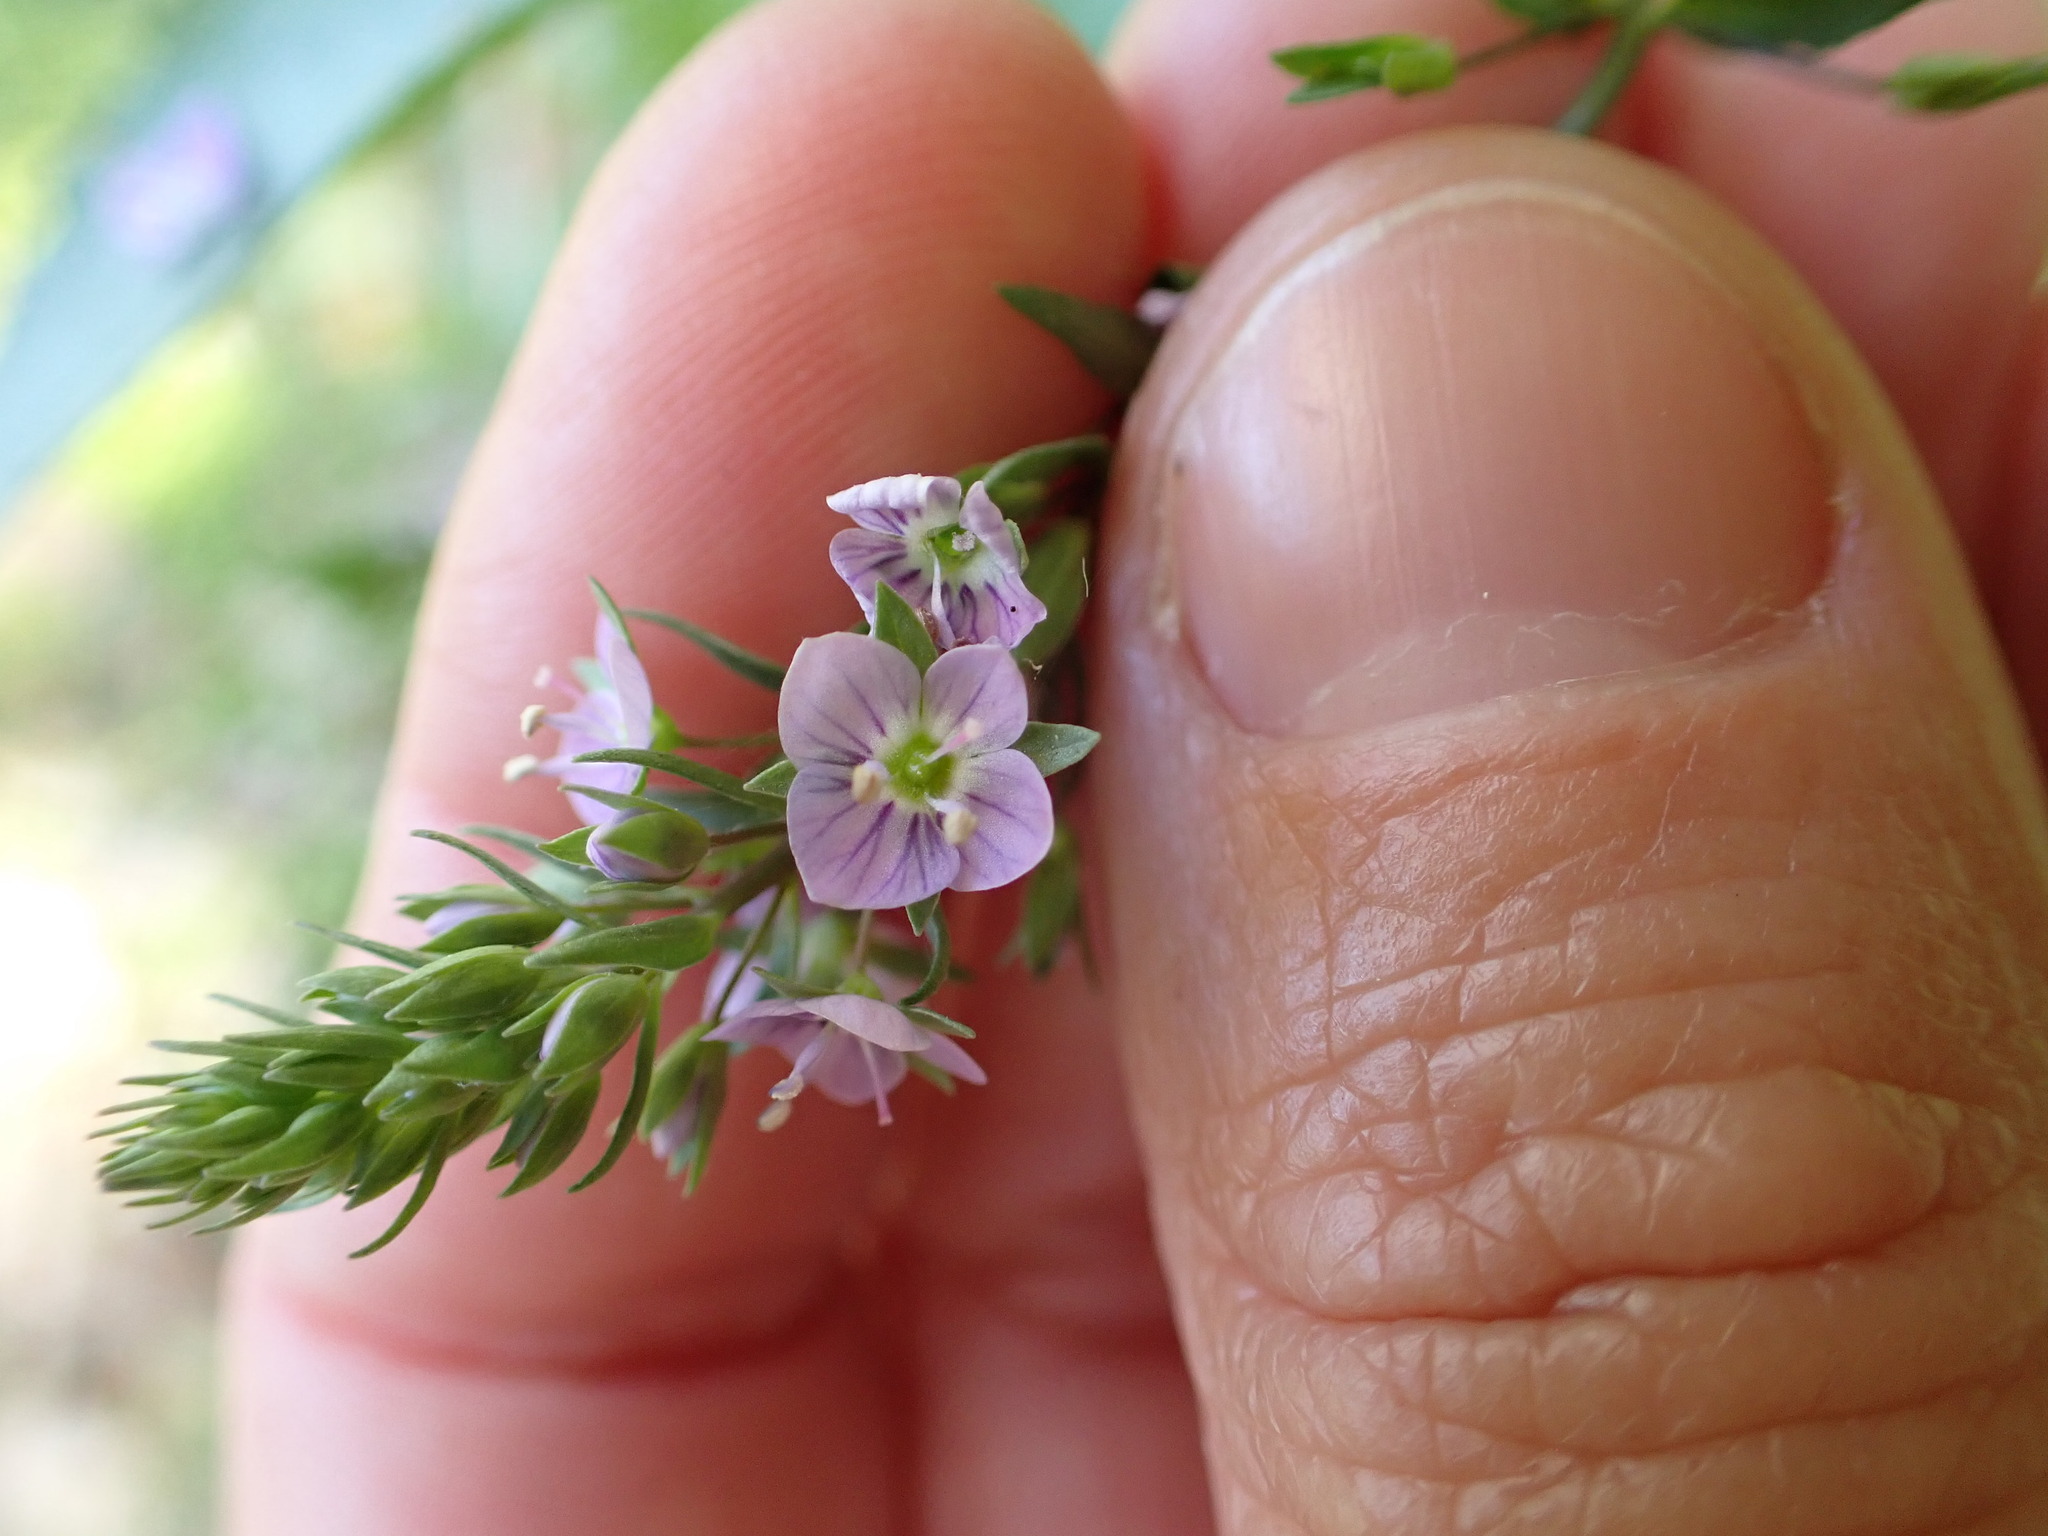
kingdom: Plantae
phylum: Tracheophyta
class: Magnoliopsida
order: Lamiales
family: Plantaginaceae
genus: Veronica
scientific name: Veronica anagallis-aquatica
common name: Water speedwell
